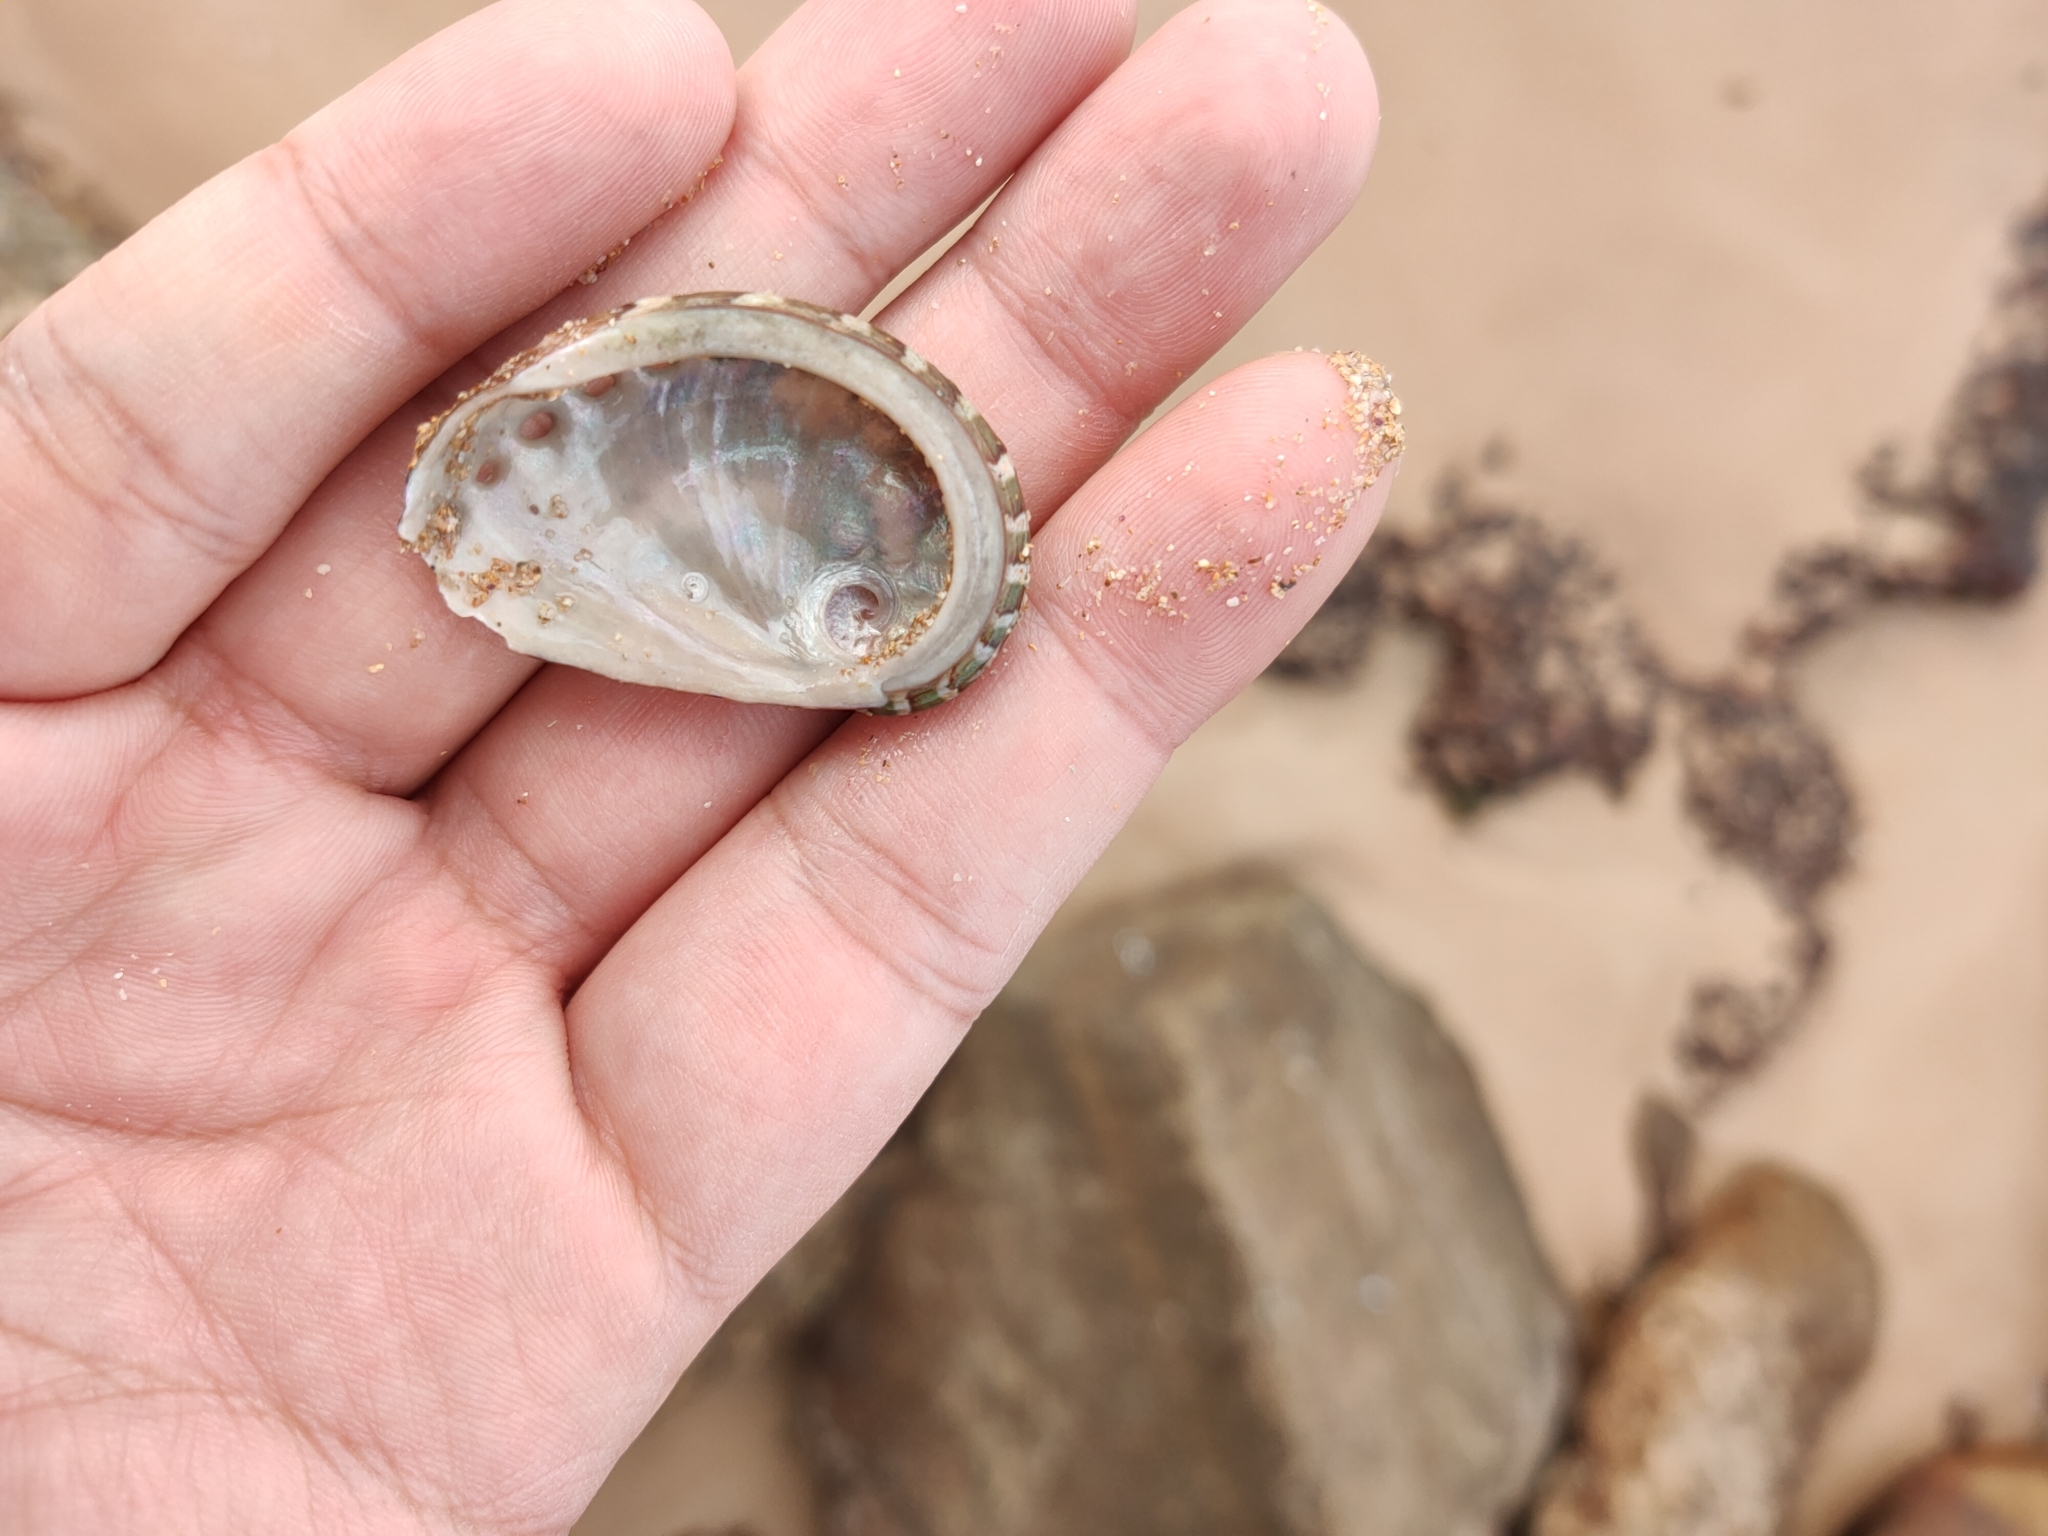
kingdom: Animalia
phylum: Mollusca
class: Gastropoda
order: Lepetellida
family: Haliotidae
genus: Haliotis
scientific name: Haliotis coccoradiata
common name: Reddish-rayed abalone
